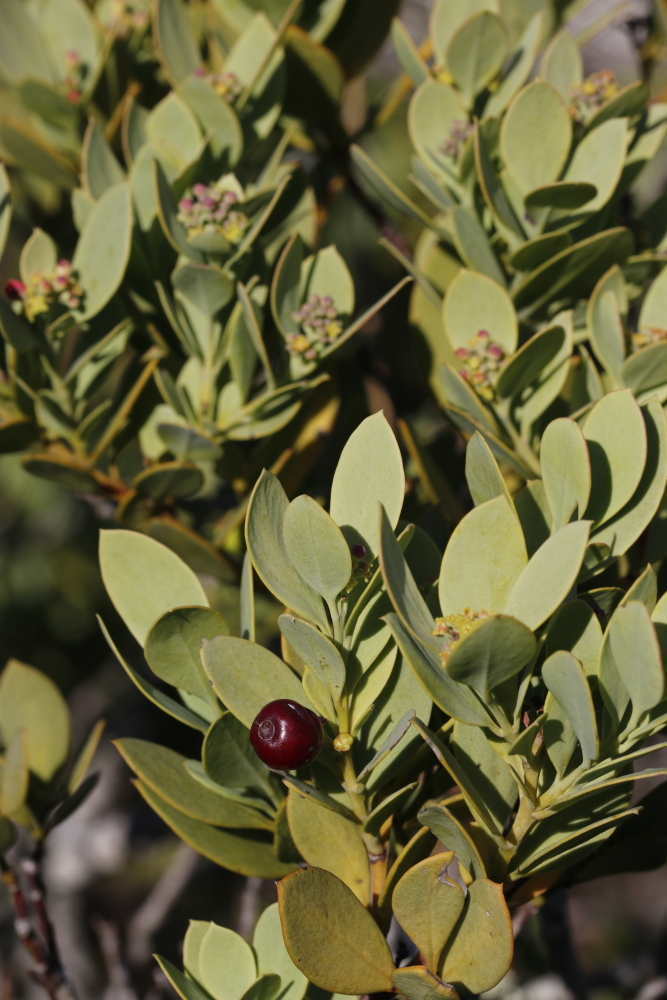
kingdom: Plantae
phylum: Tracheophyta
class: Magnoliopsida
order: Santalales
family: Santalaceae
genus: Osyris
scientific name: Osyris compressa
